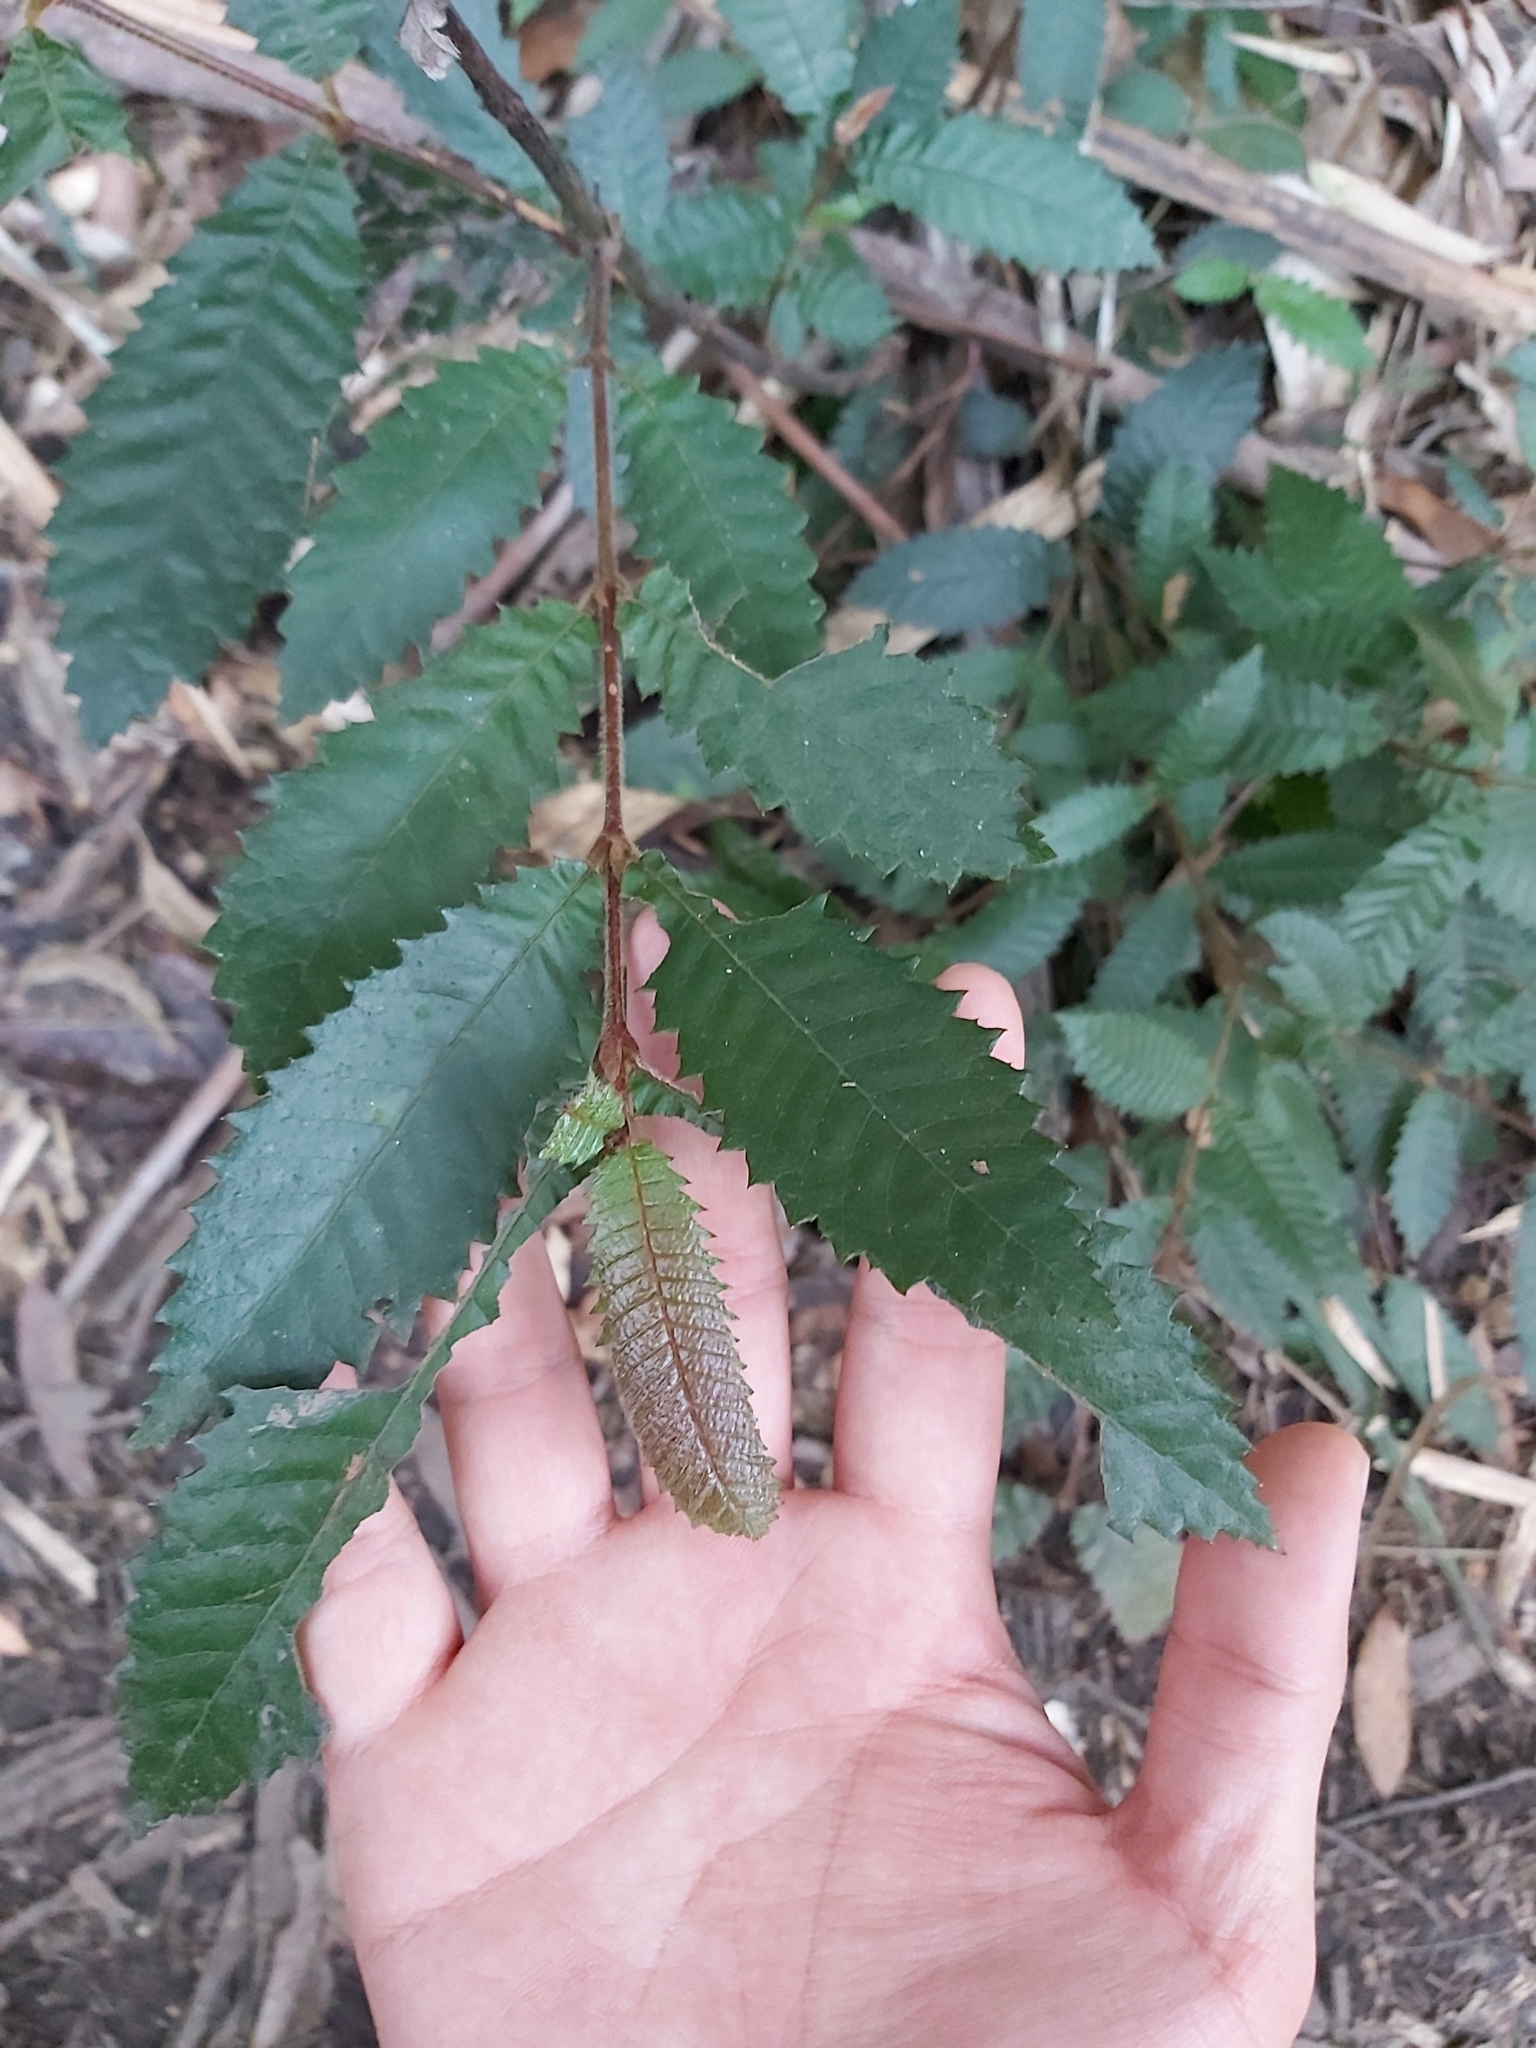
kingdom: Plantae
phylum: Tracheophyta
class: Magnoliopsida
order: Oxalidales
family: Cunoniaceae
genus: Callicoma
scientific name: Callicoma serratifolia
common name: Black wattle
